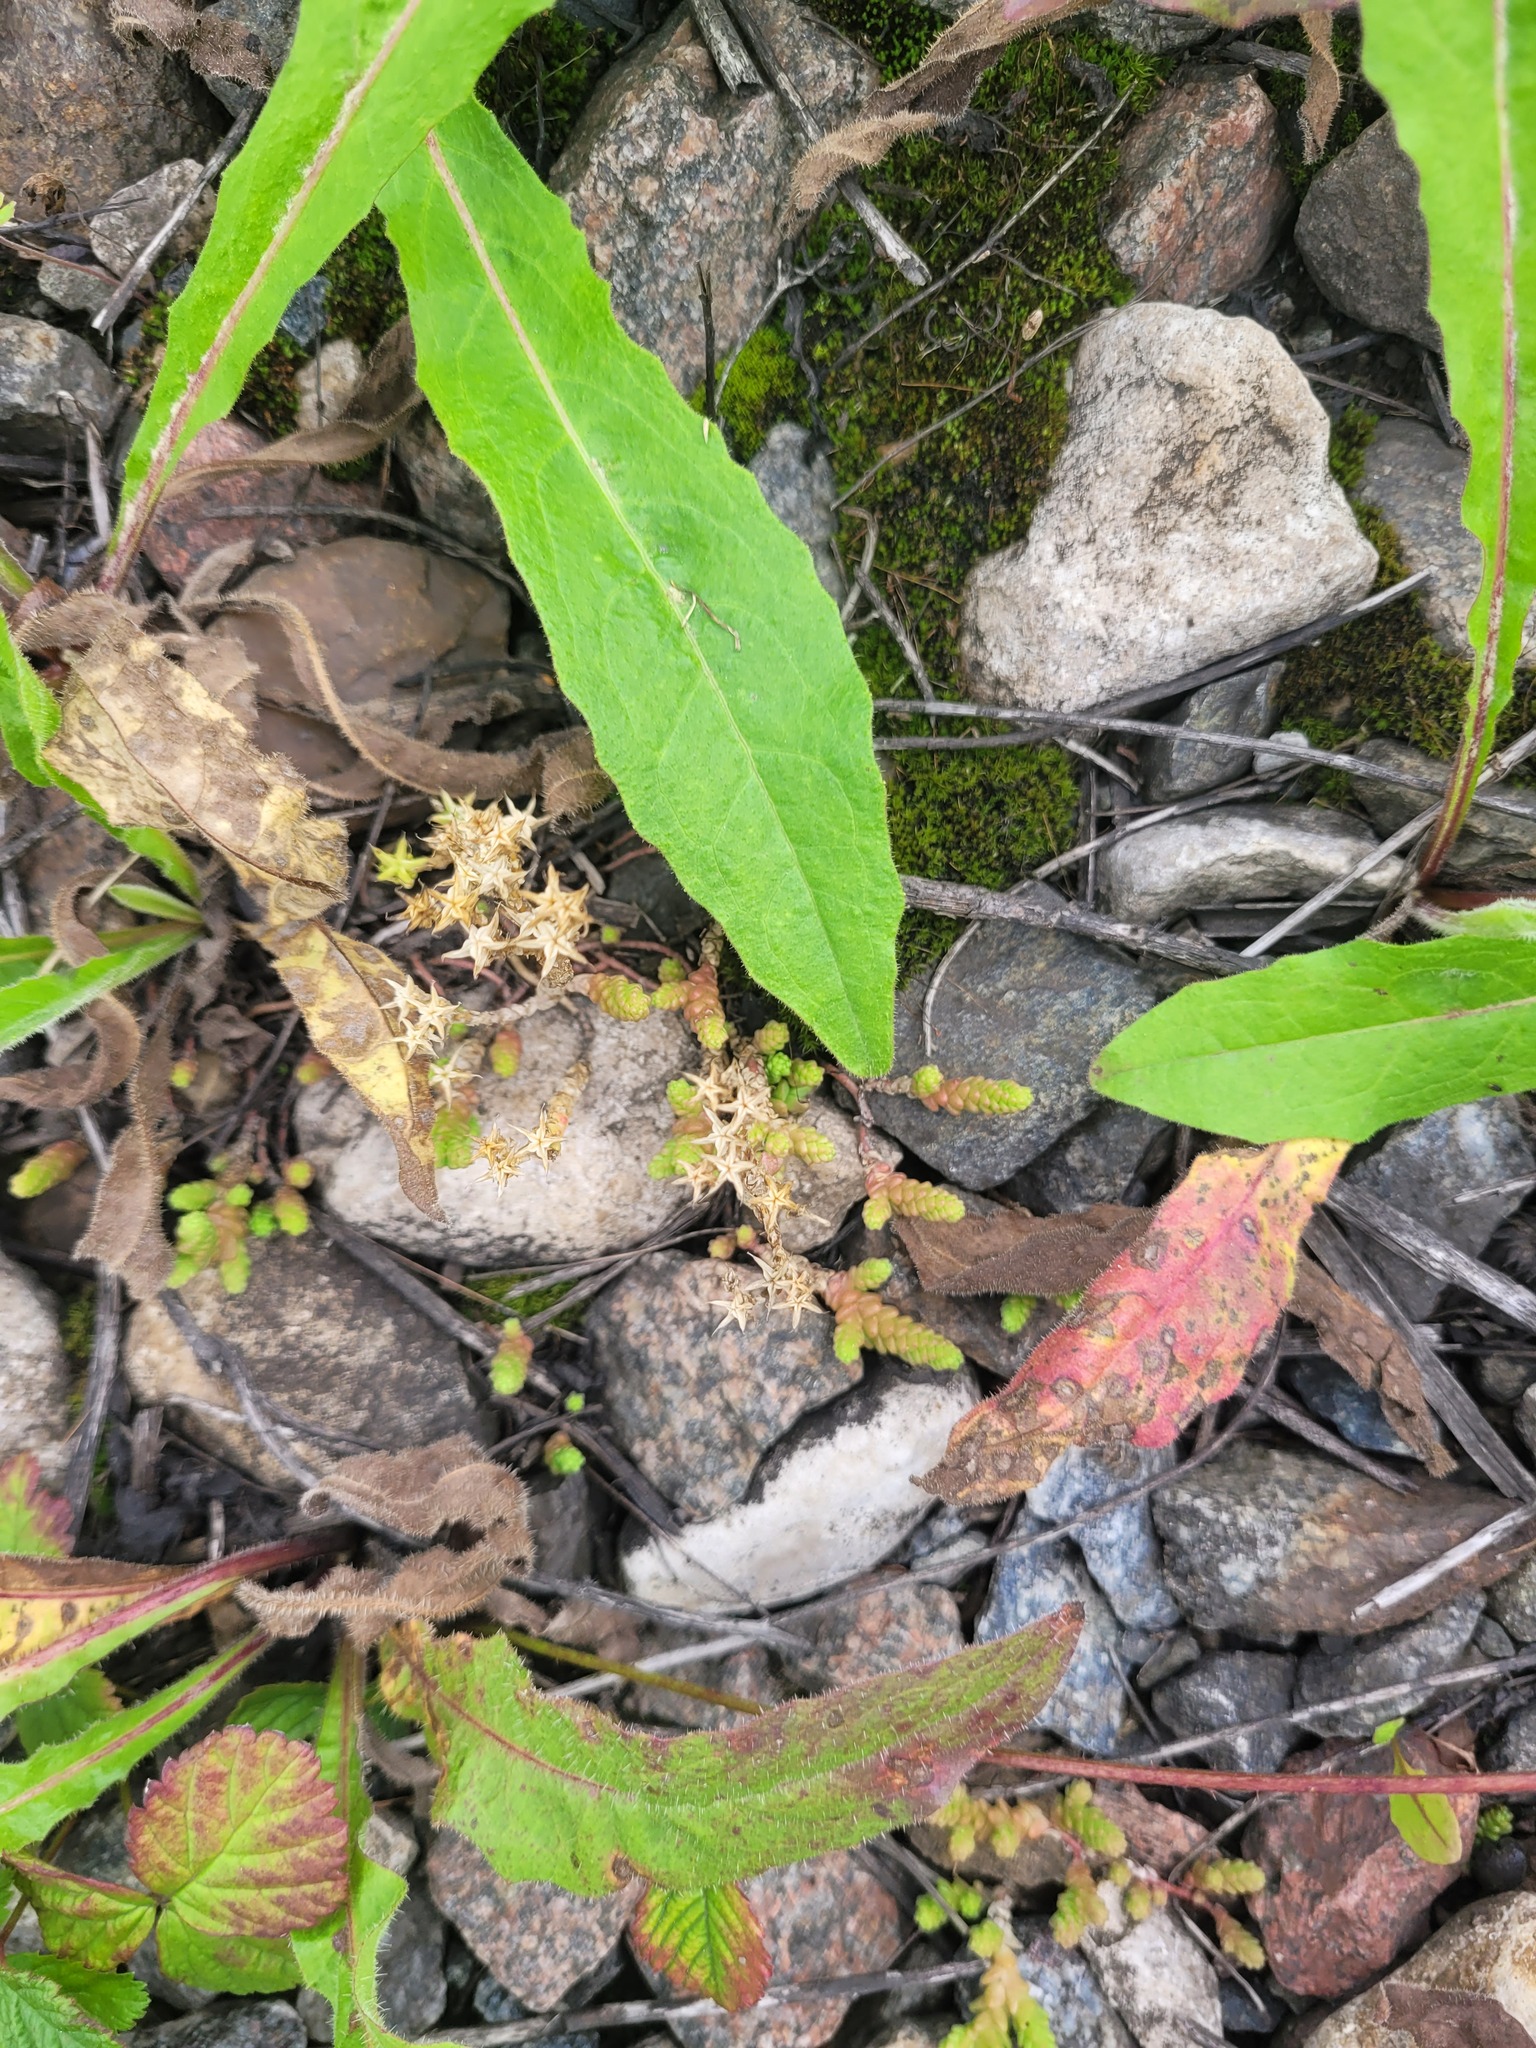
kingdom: Plantae
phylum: Tracheophyta
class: Magnoliopsida
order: Saxifragales
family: Crassulaceae
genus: Sedum
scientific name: Sedum acre
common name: Biting stonecrop
